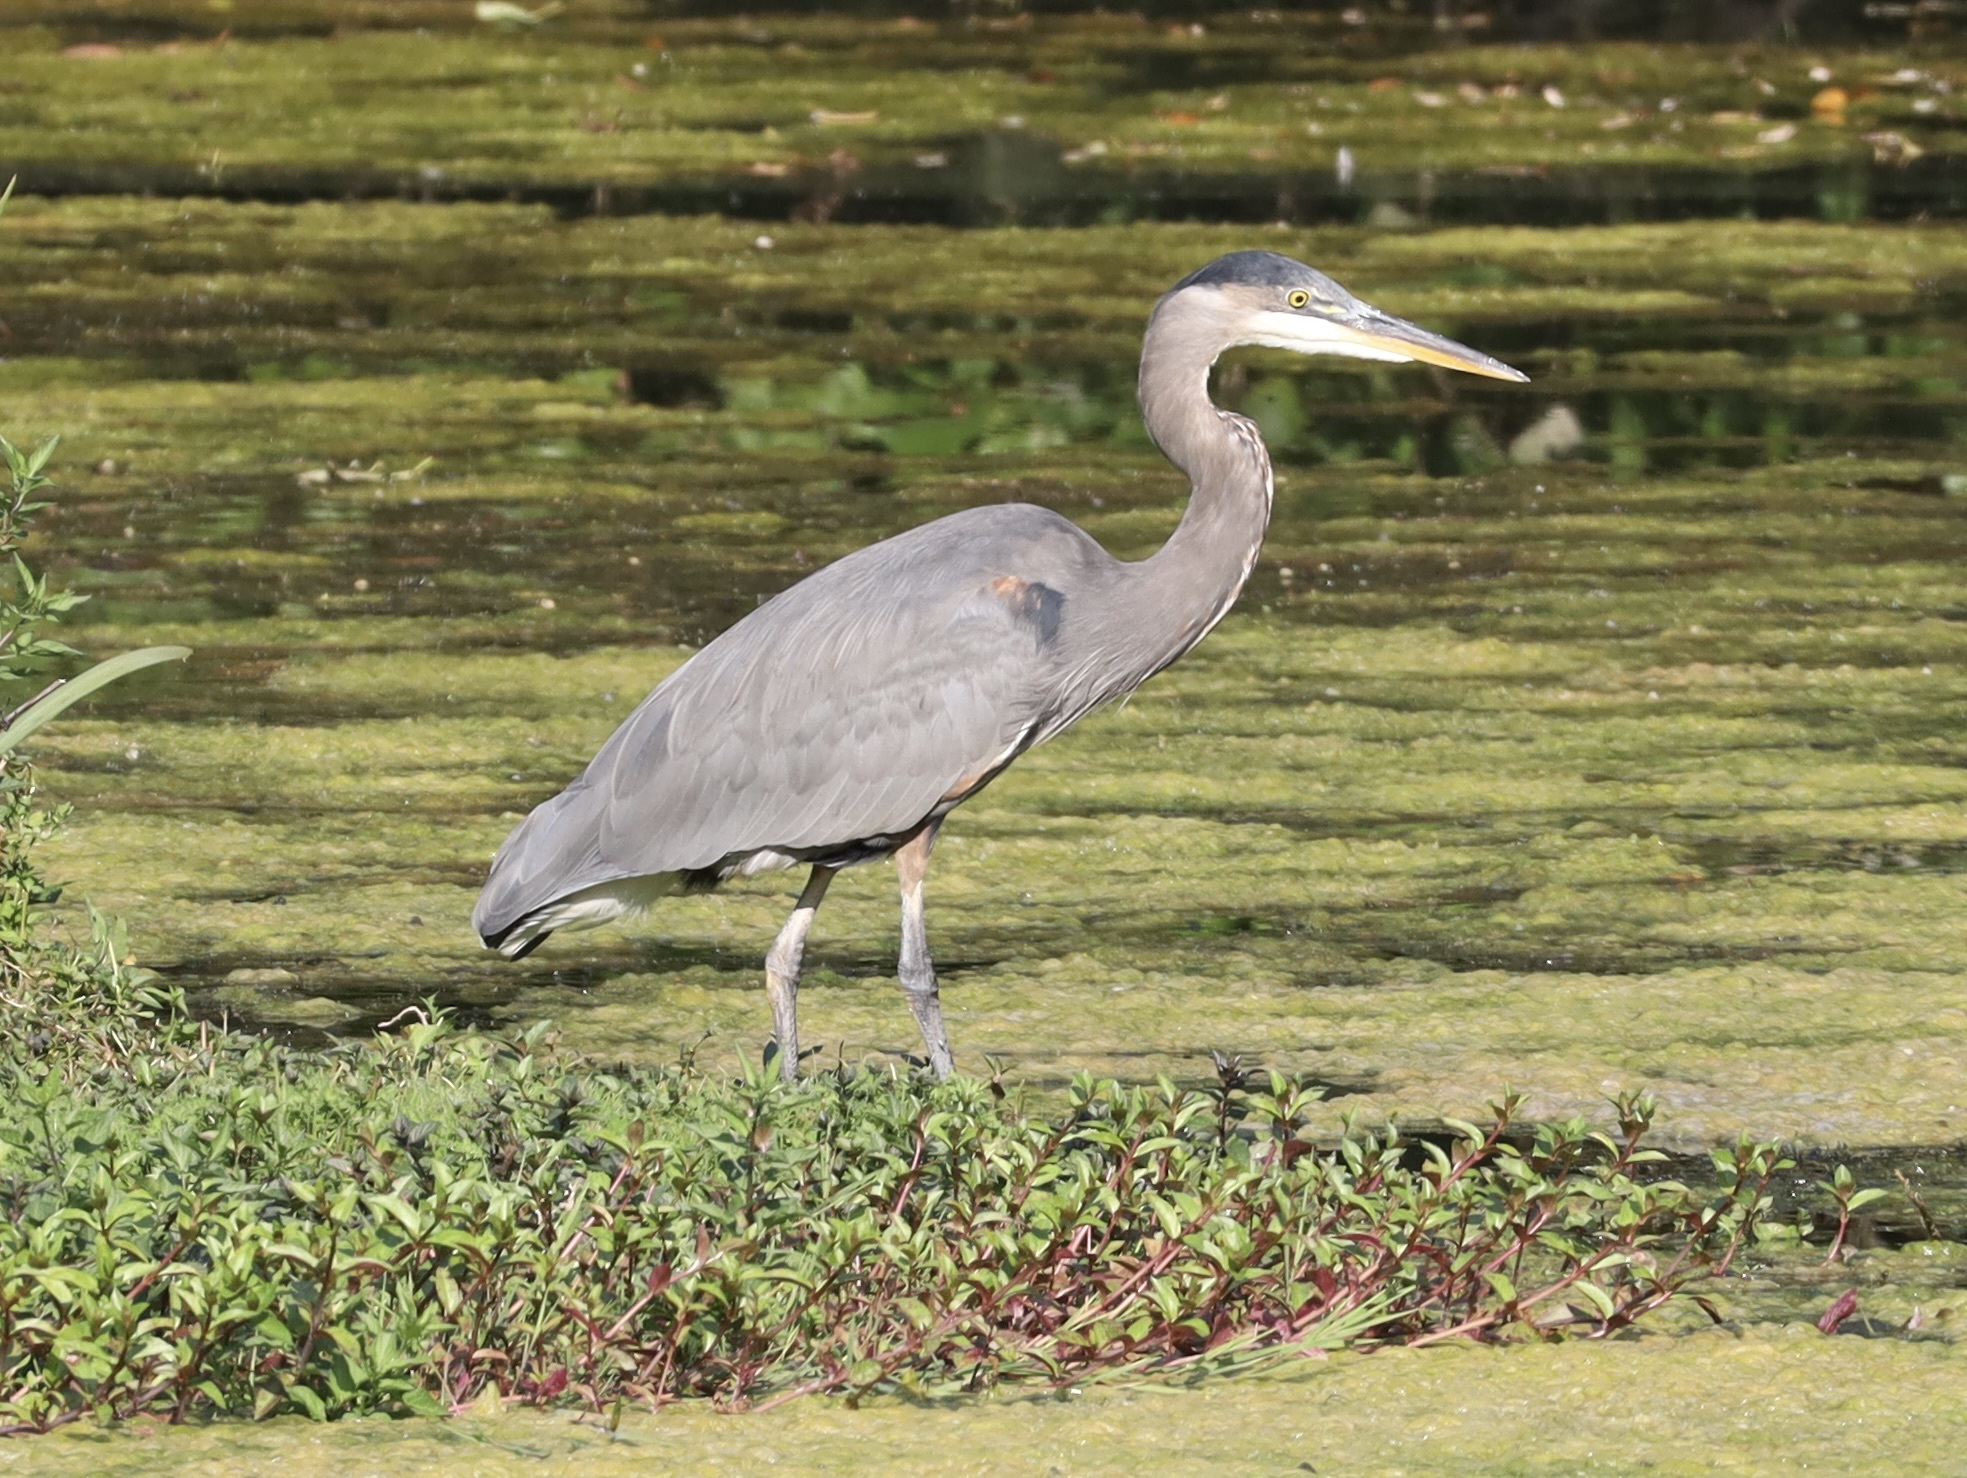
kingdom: Animalia
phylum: Chordata
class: Aves
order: Pelecaniformes
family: Ardeidae
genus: Ardea
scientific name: Ardea herodias
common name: Great blue heron
